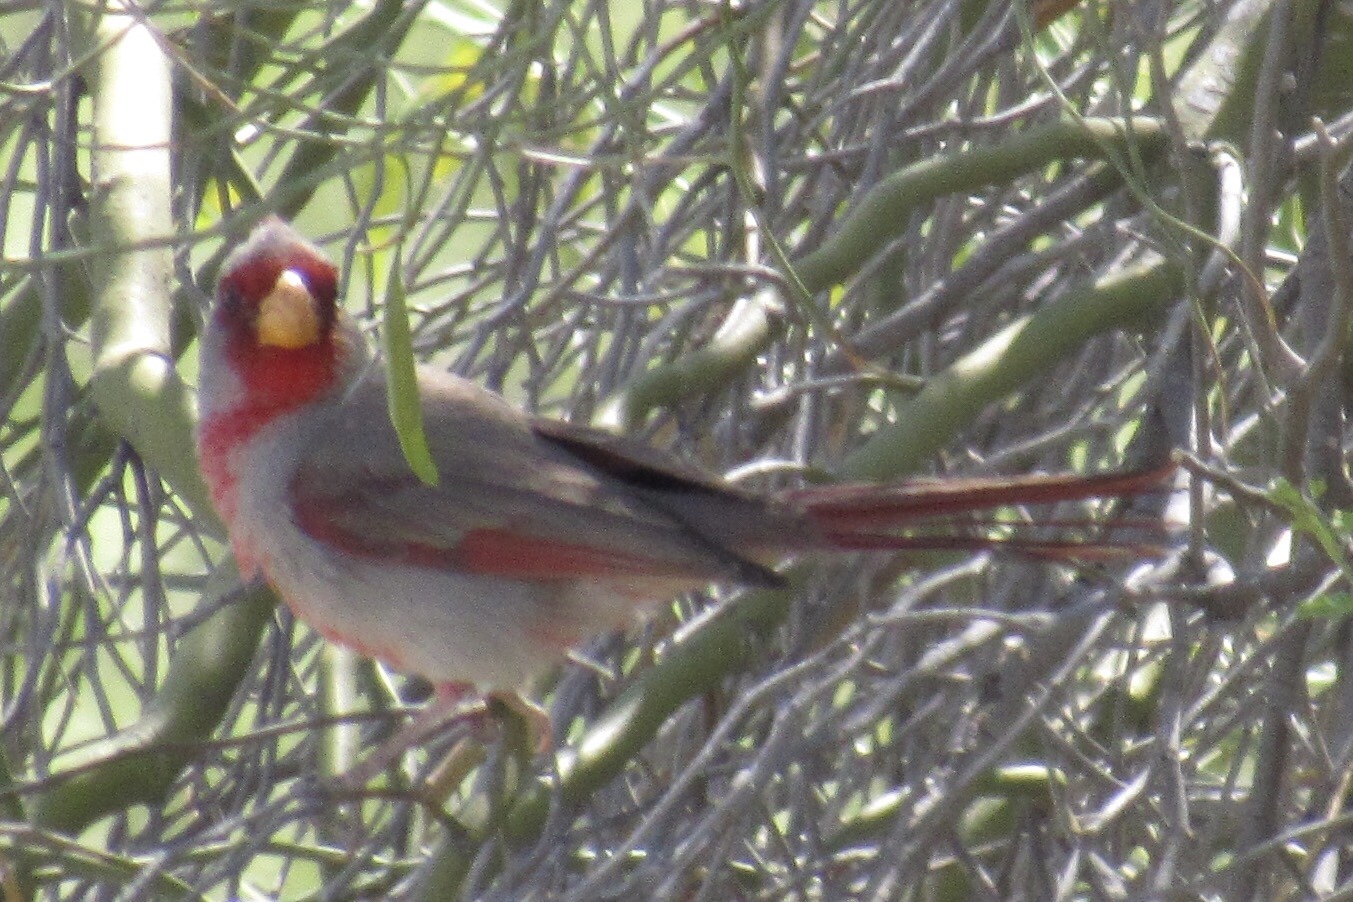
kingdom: Animalia
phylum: Chordata
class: Aves
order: Passeriformes
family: Cardinalidae
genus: Cardinalis
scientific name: Cardinalis sinuatus
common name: Pyrrhuloxia
